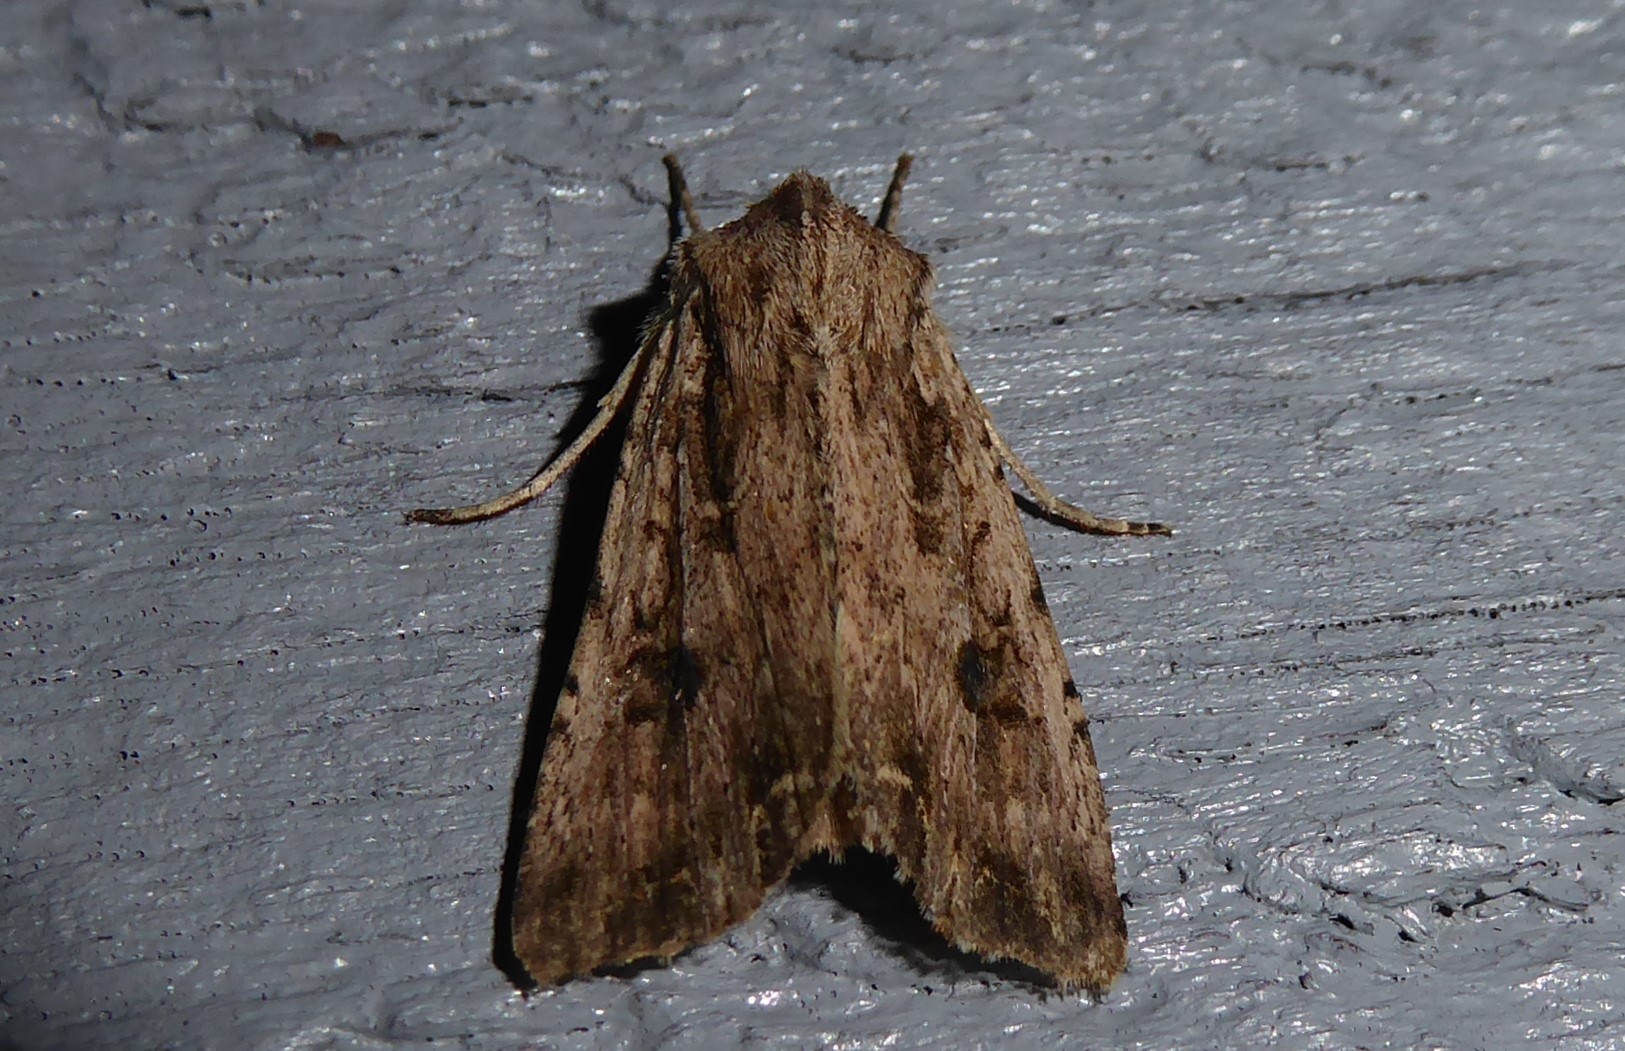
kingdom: Animalia
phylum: Arthropoda
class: Insecta
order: Lepidoptera
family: Noctuidae
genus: Ichneutica
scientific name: Ichneutica lignana
